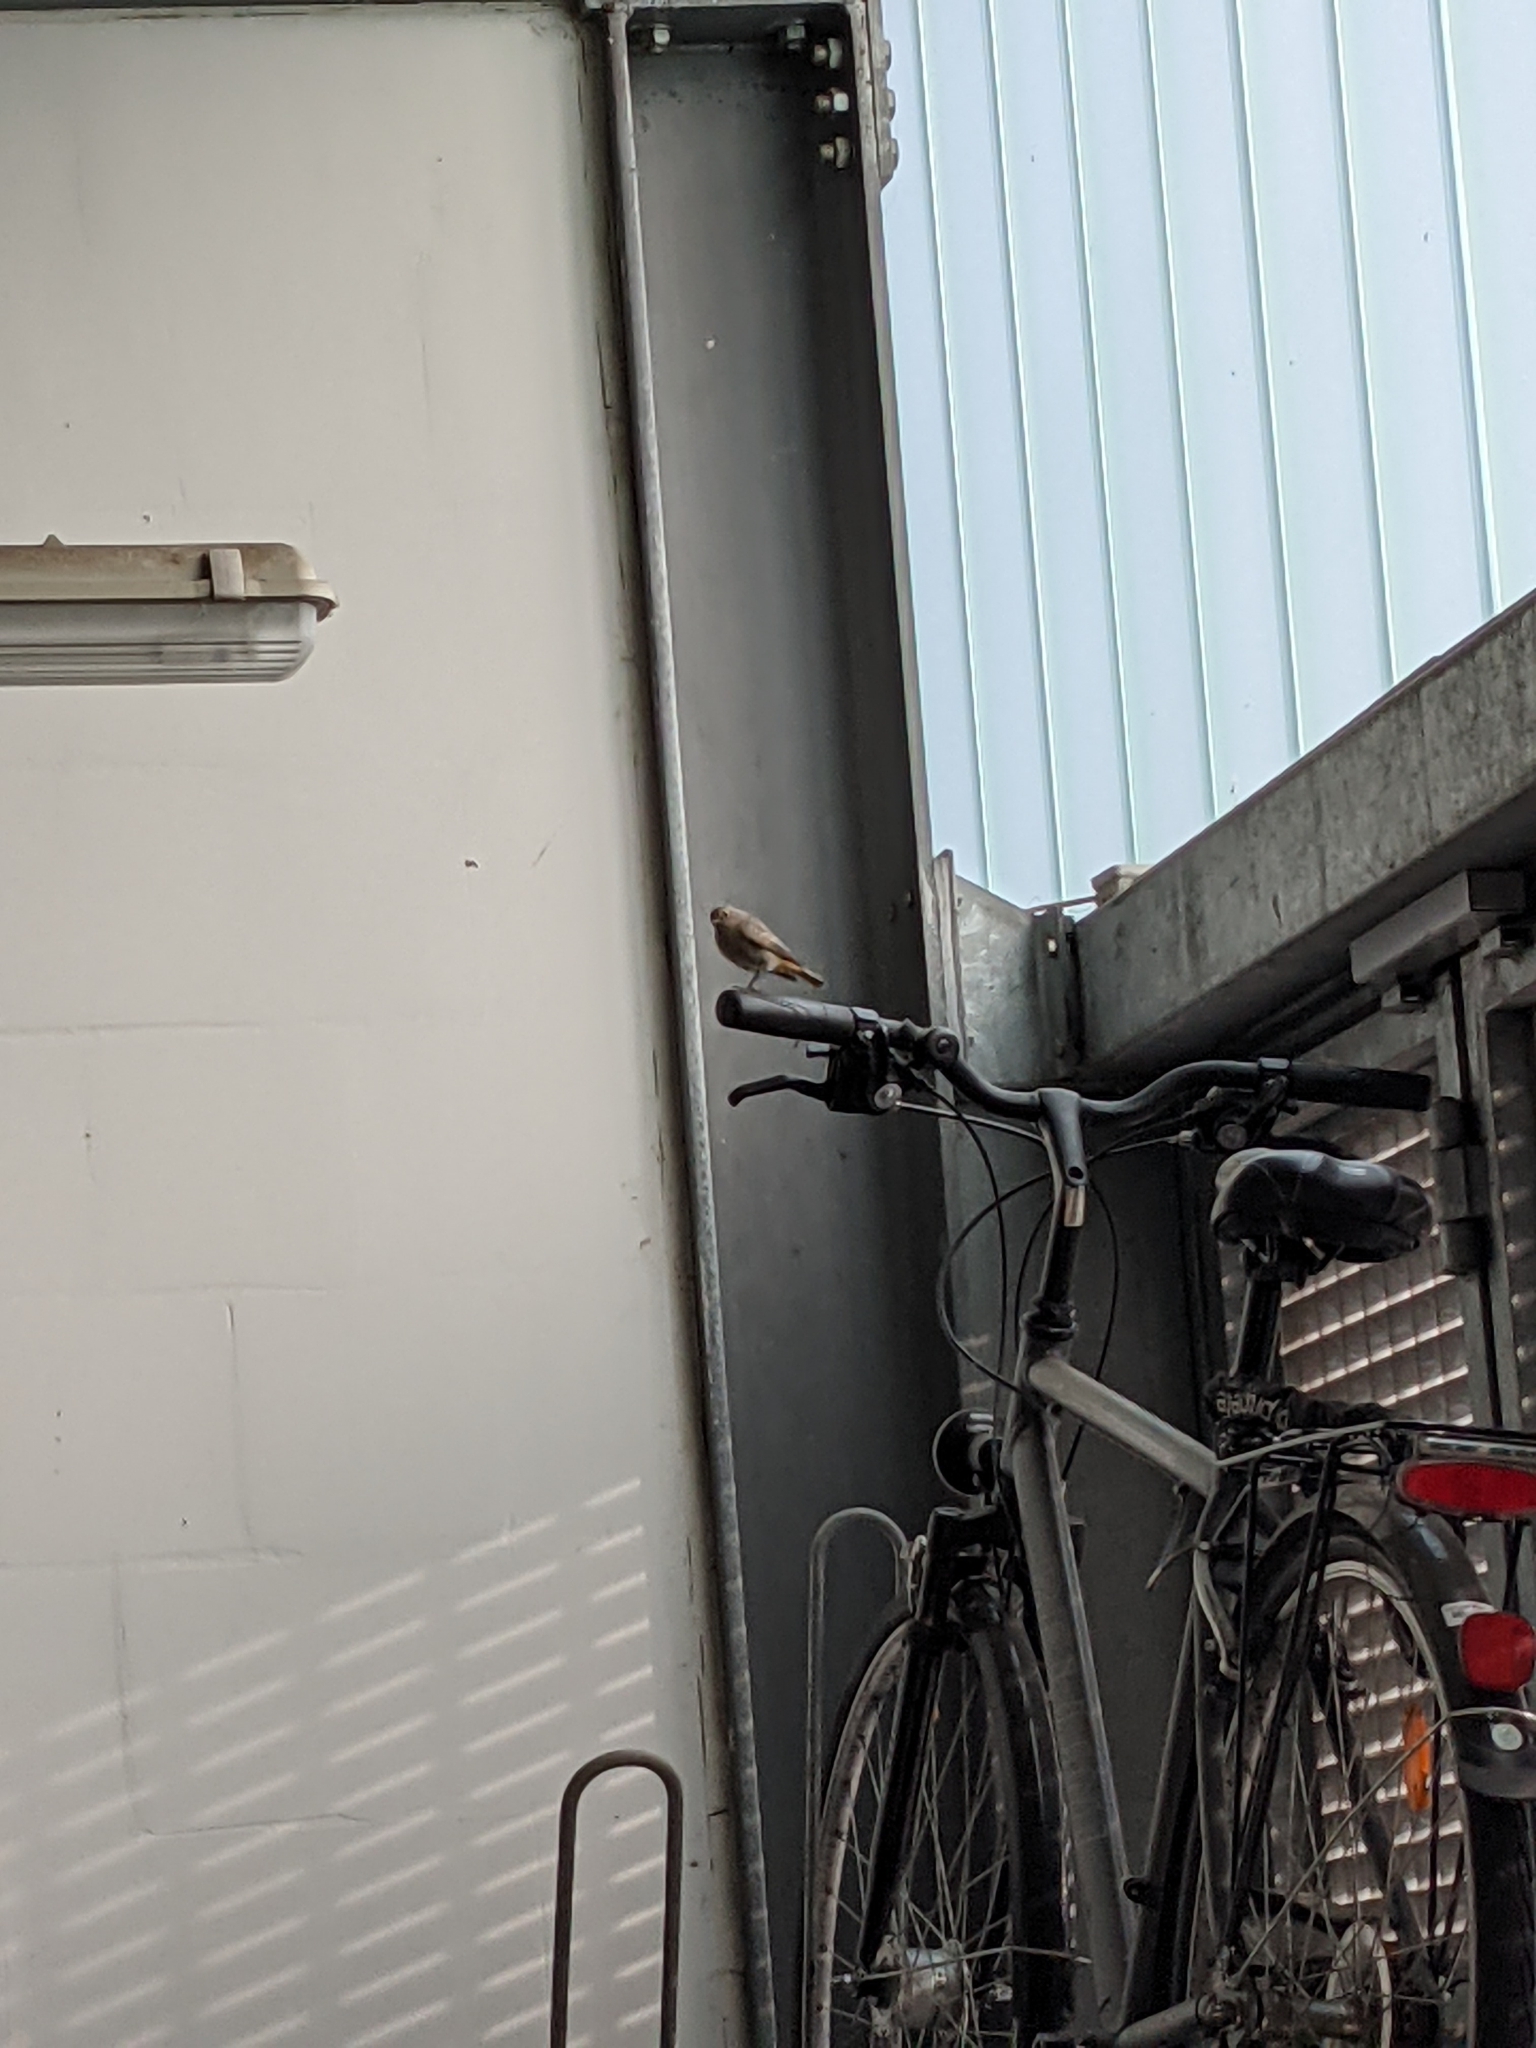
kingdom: Animalia
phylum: Chordata
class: Aves
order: Passeriformes
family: Muscicapidae
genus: Phoenicurus
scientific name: Phoenicurus ochruros
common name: Black redstart
